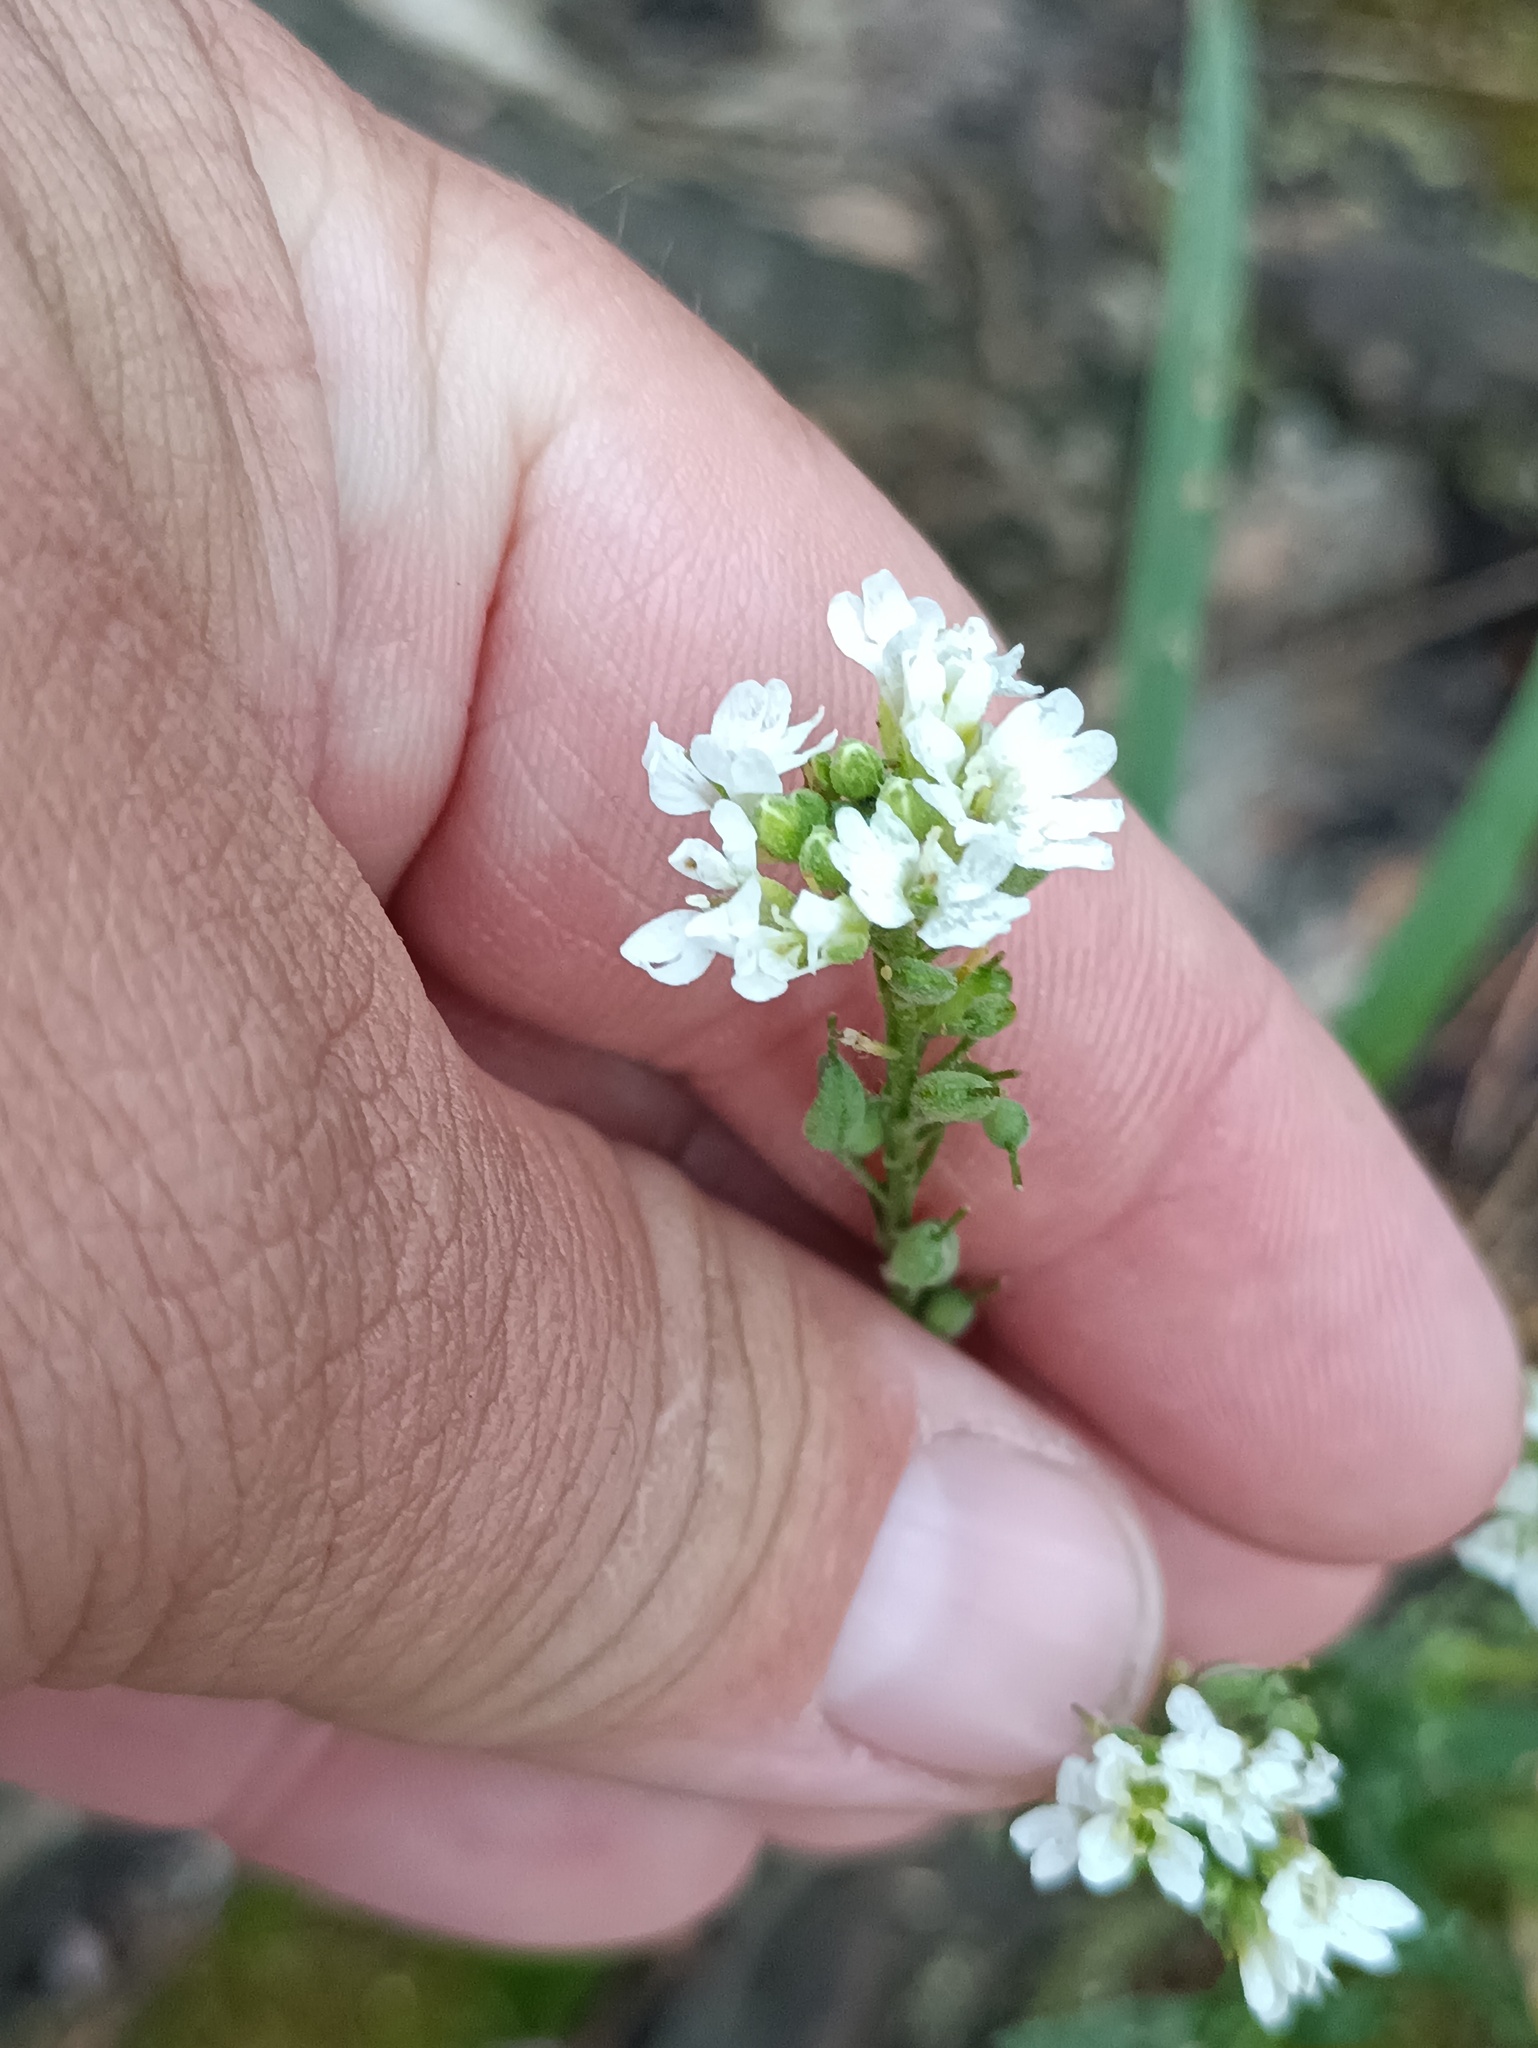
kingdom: Plantae
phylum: Tracheophyta
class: Magnoliopsida
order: Brassicales
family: Brassicaceae
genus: Berteroa
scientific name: Berteroa incana
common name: Hoary alison
